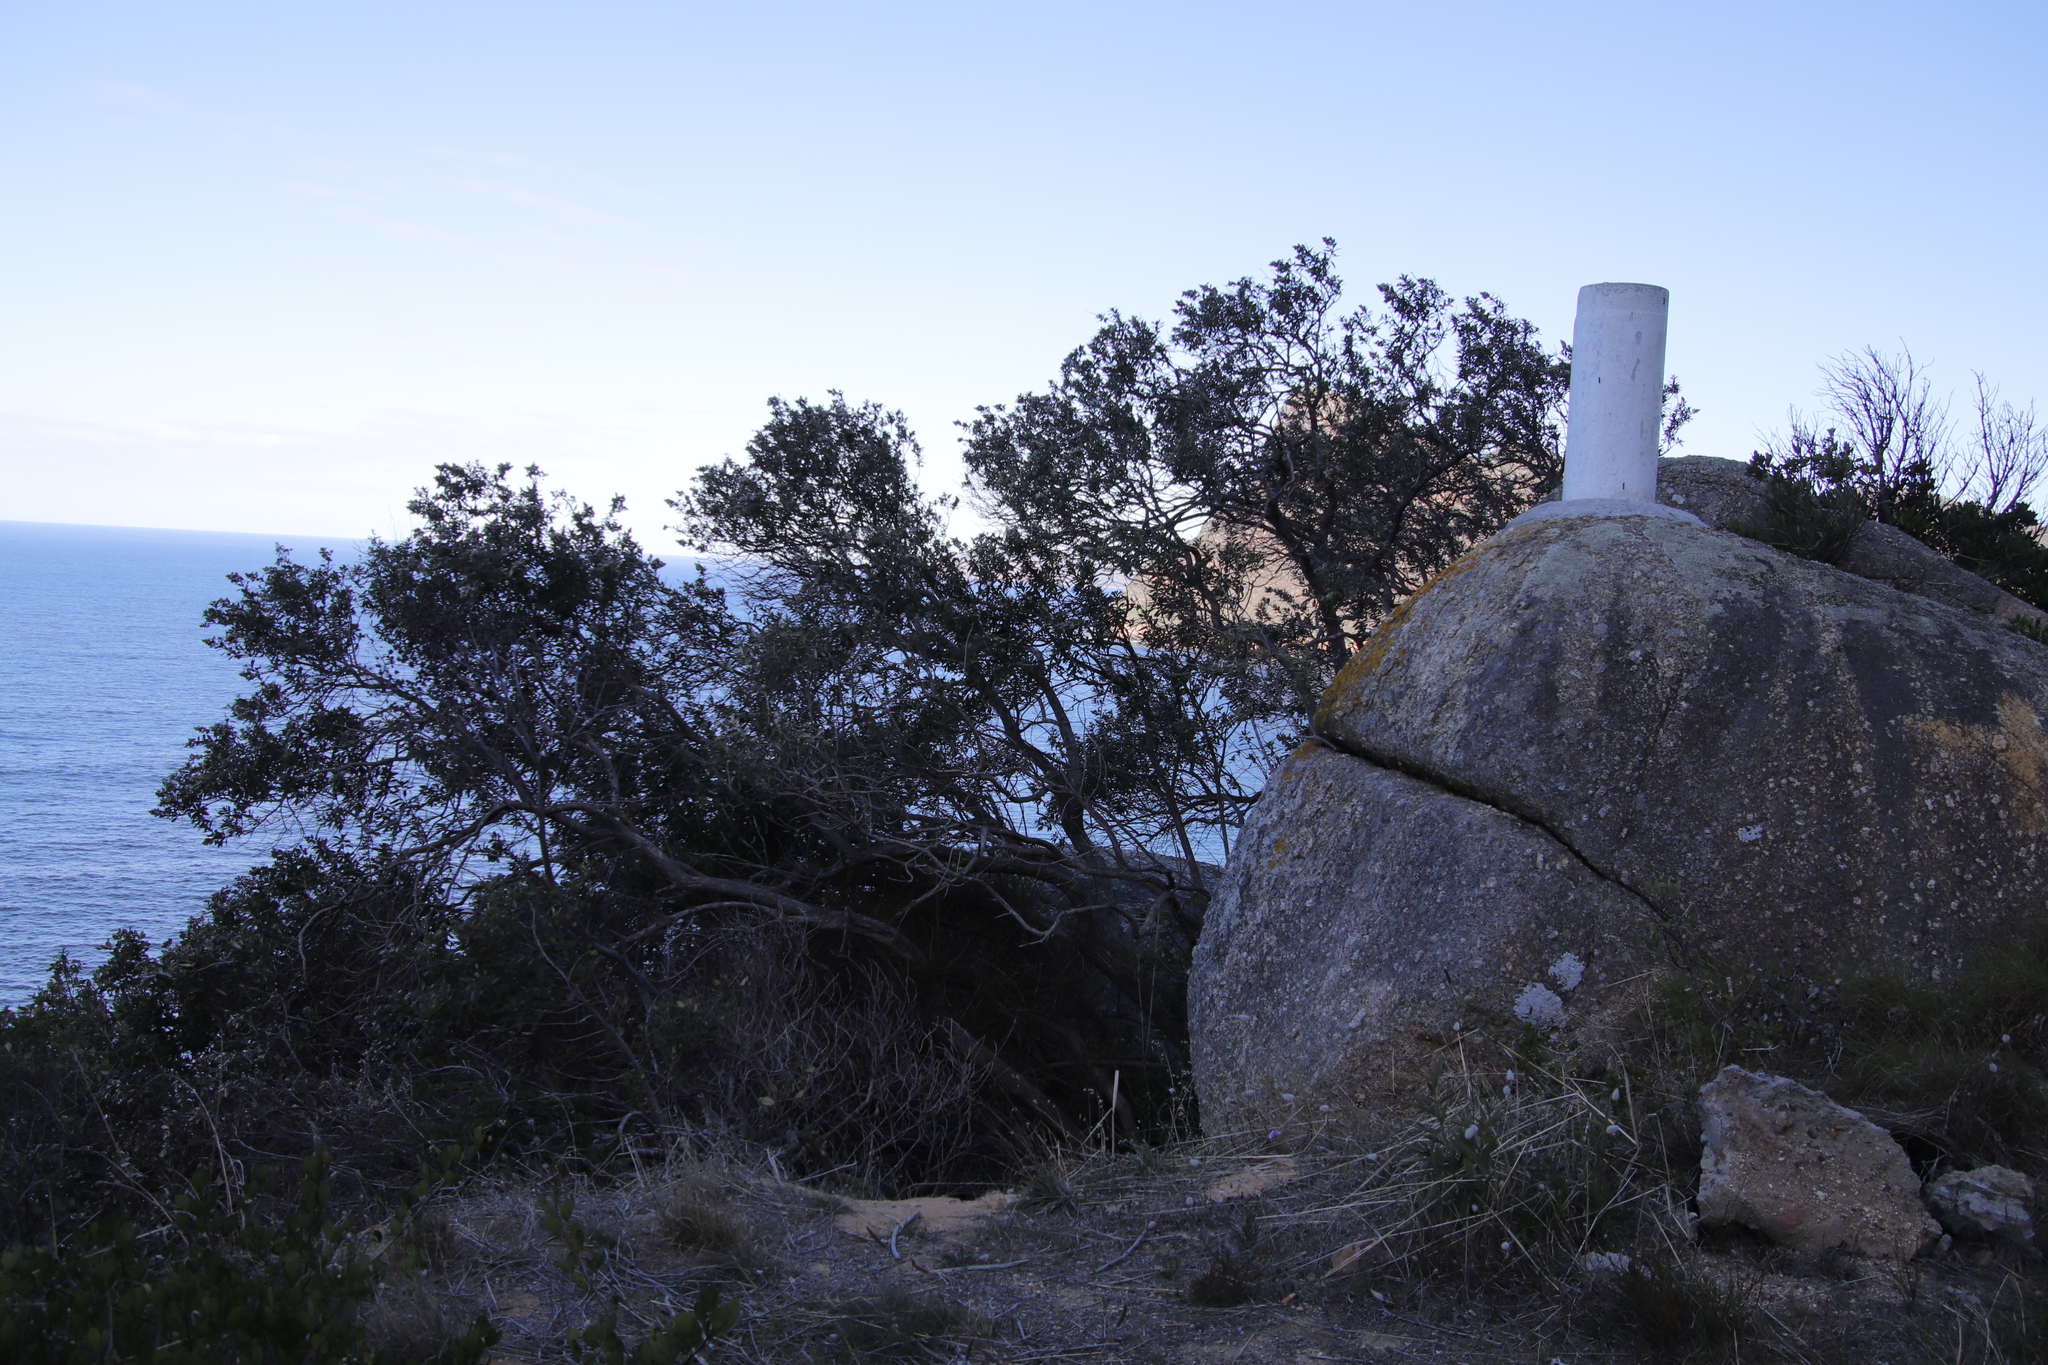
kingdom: Plantae
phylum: Tracheophyta
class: Magnoliopsida
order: Asterales
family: Asteraceae
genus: Tarchonanthus
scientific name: Tarchonanthus littoralis
